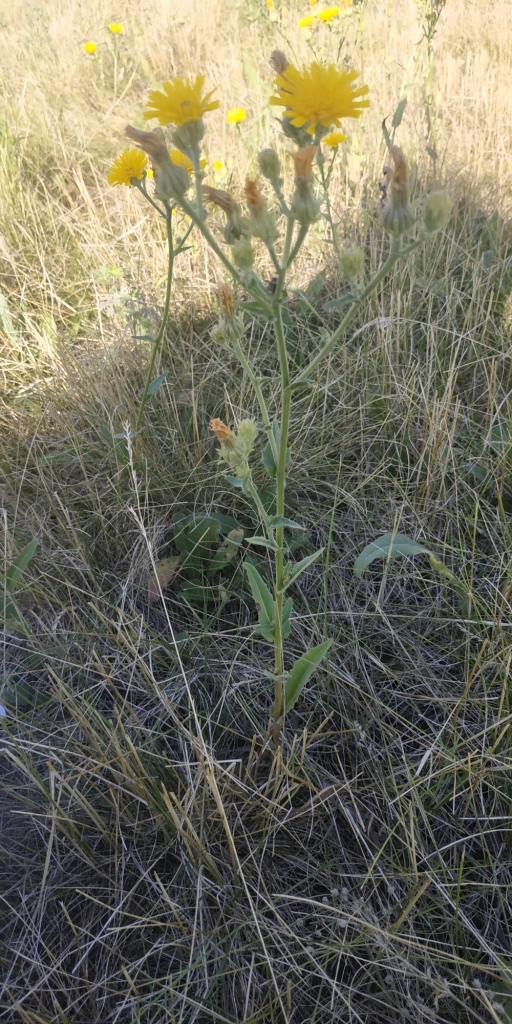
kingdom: Plantae
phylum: Tracheophyta
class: Magnoliopsida
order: Asterales
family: Asteraceae
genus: Picris
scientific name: Picris hieracioides
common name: Hawkweed oxtongue
